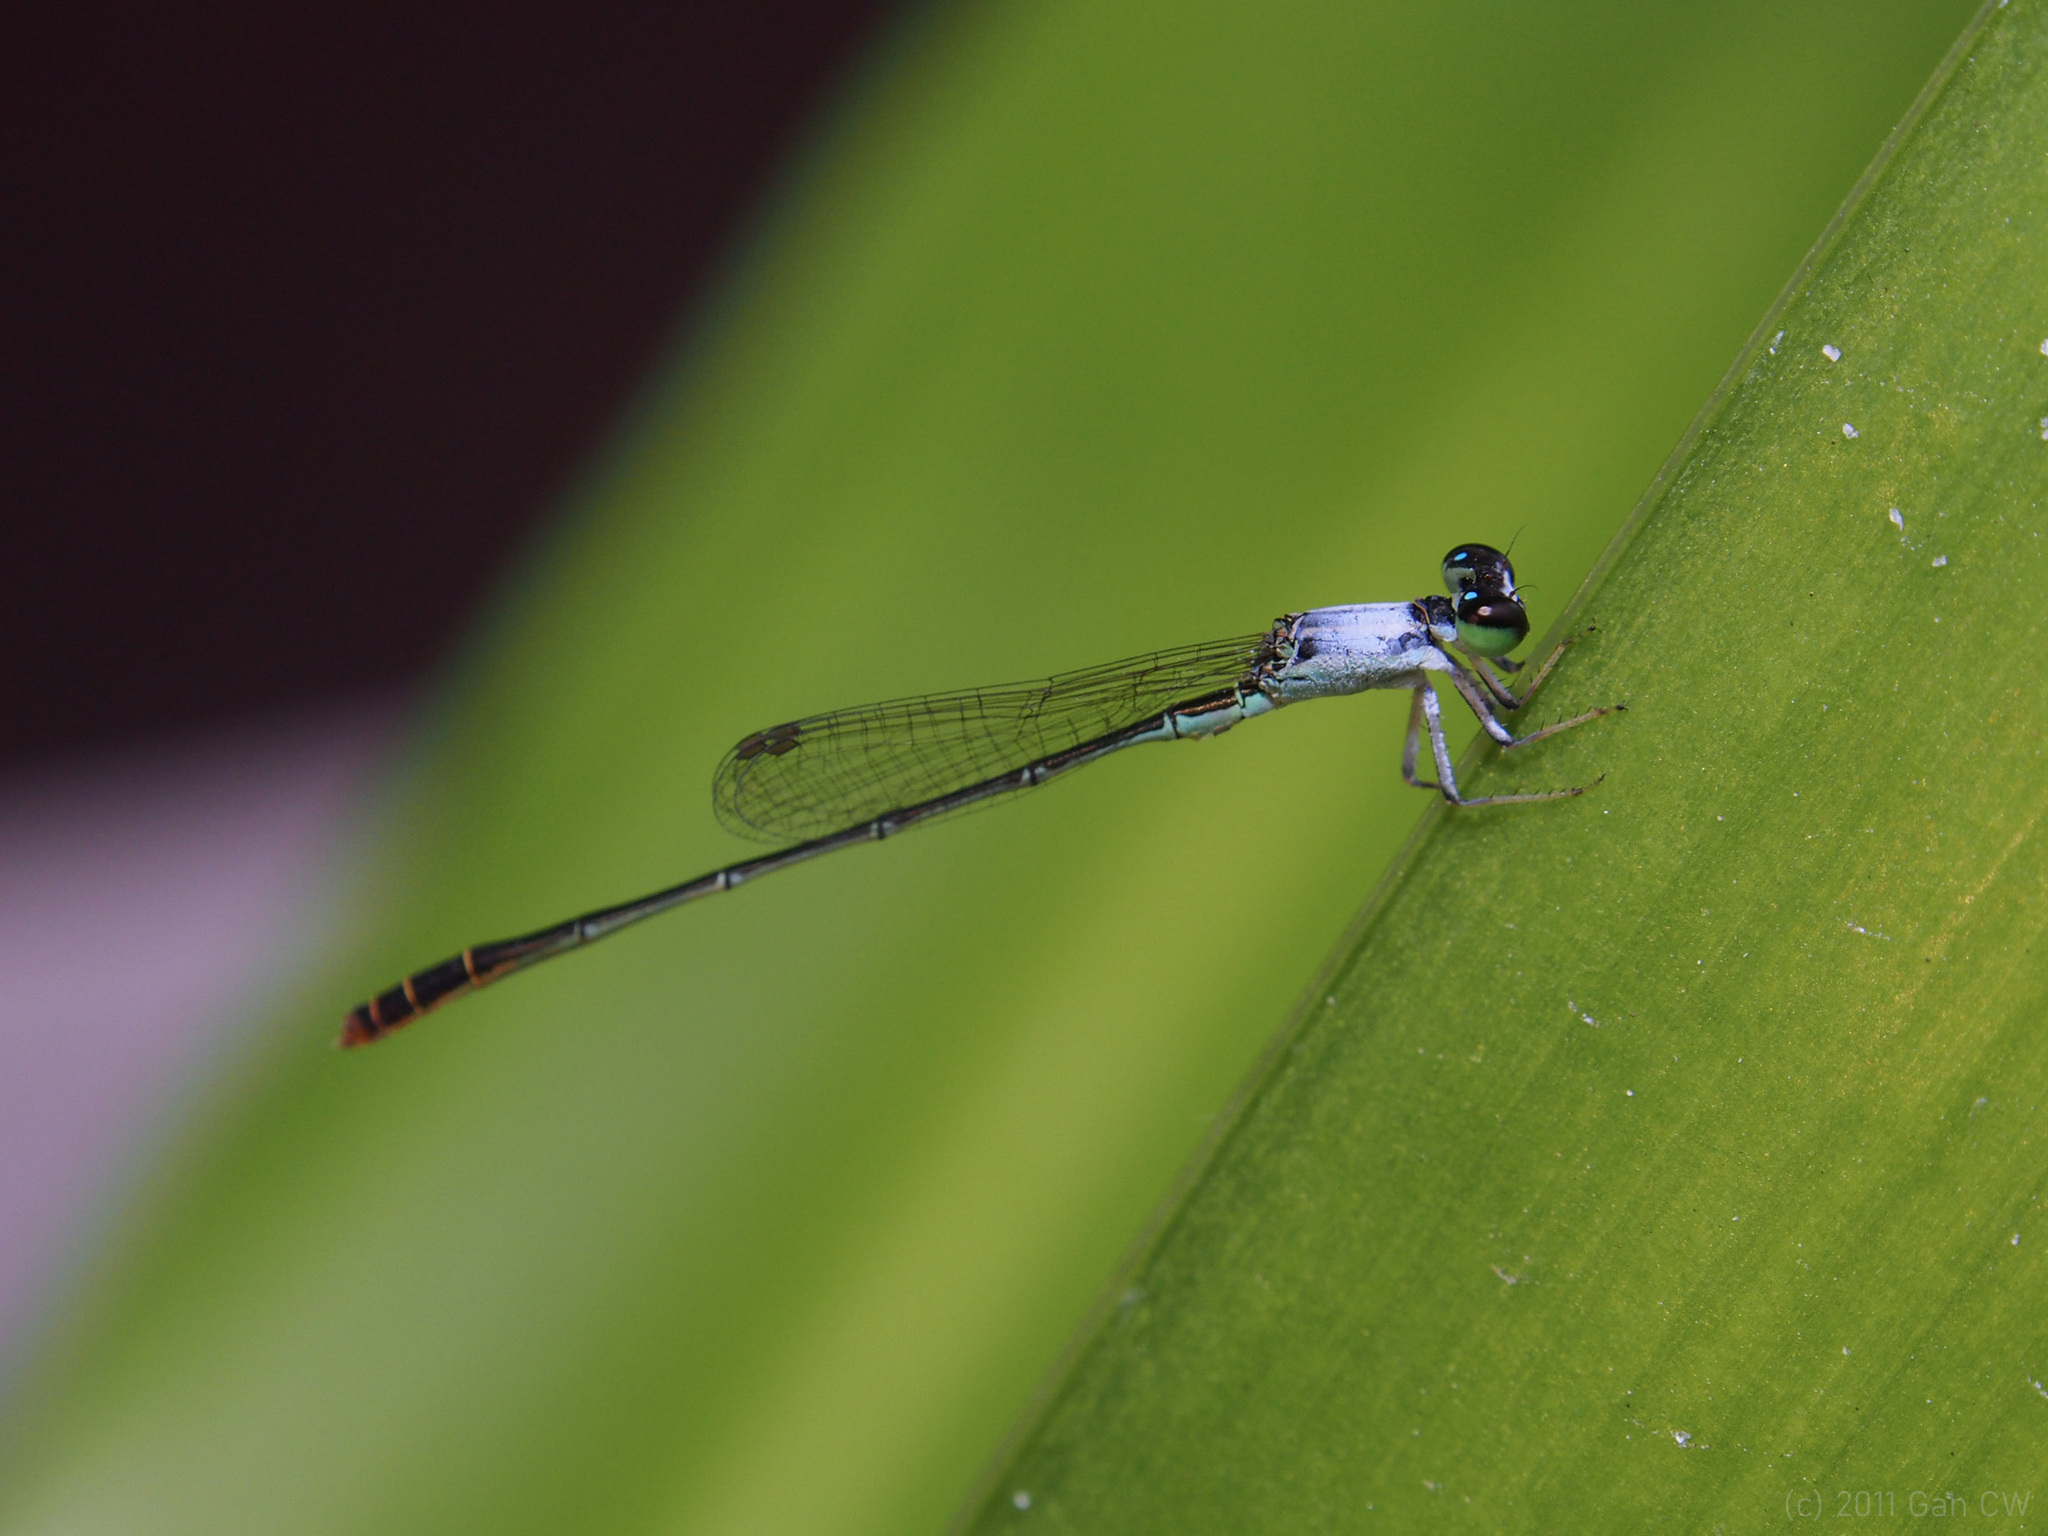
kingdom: Animalia
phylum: Arthropoda
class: Insecta
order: Odonata
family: Coenagrionidae
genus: Agriocnemis
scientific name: Agriocnemis femina
